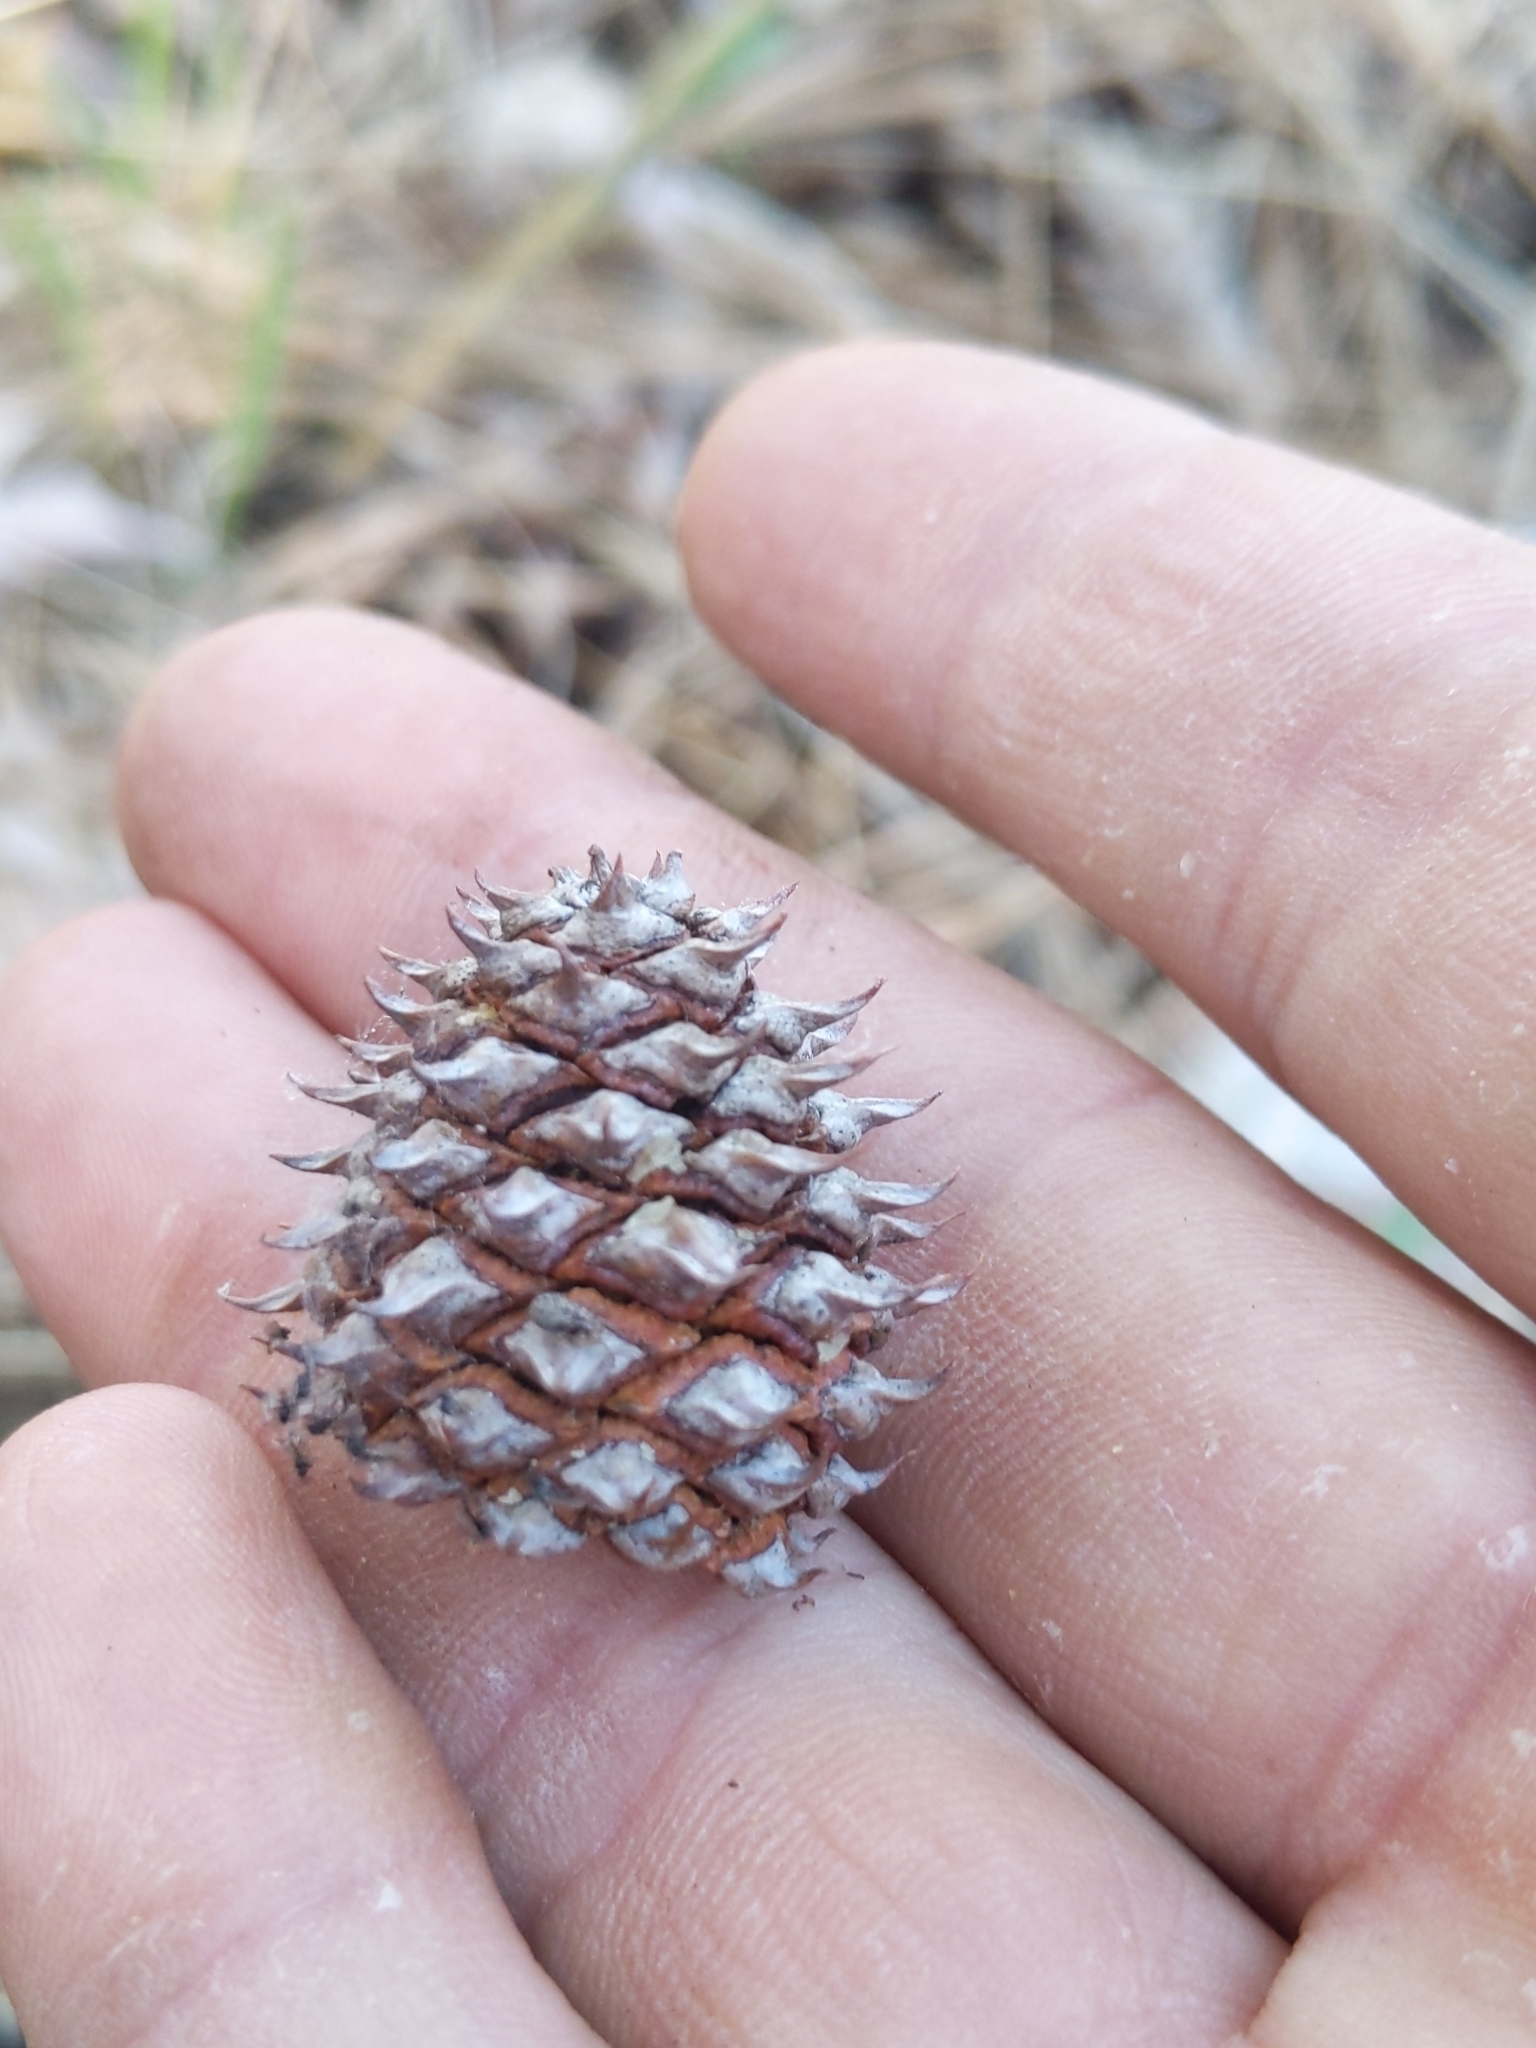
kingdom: Plantae
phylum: Tracheophyta
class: Pinopsida
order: Pinales
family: Pinaceae
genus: Pinus
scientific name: Pinus ponderosa
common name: Western yellow-pine
